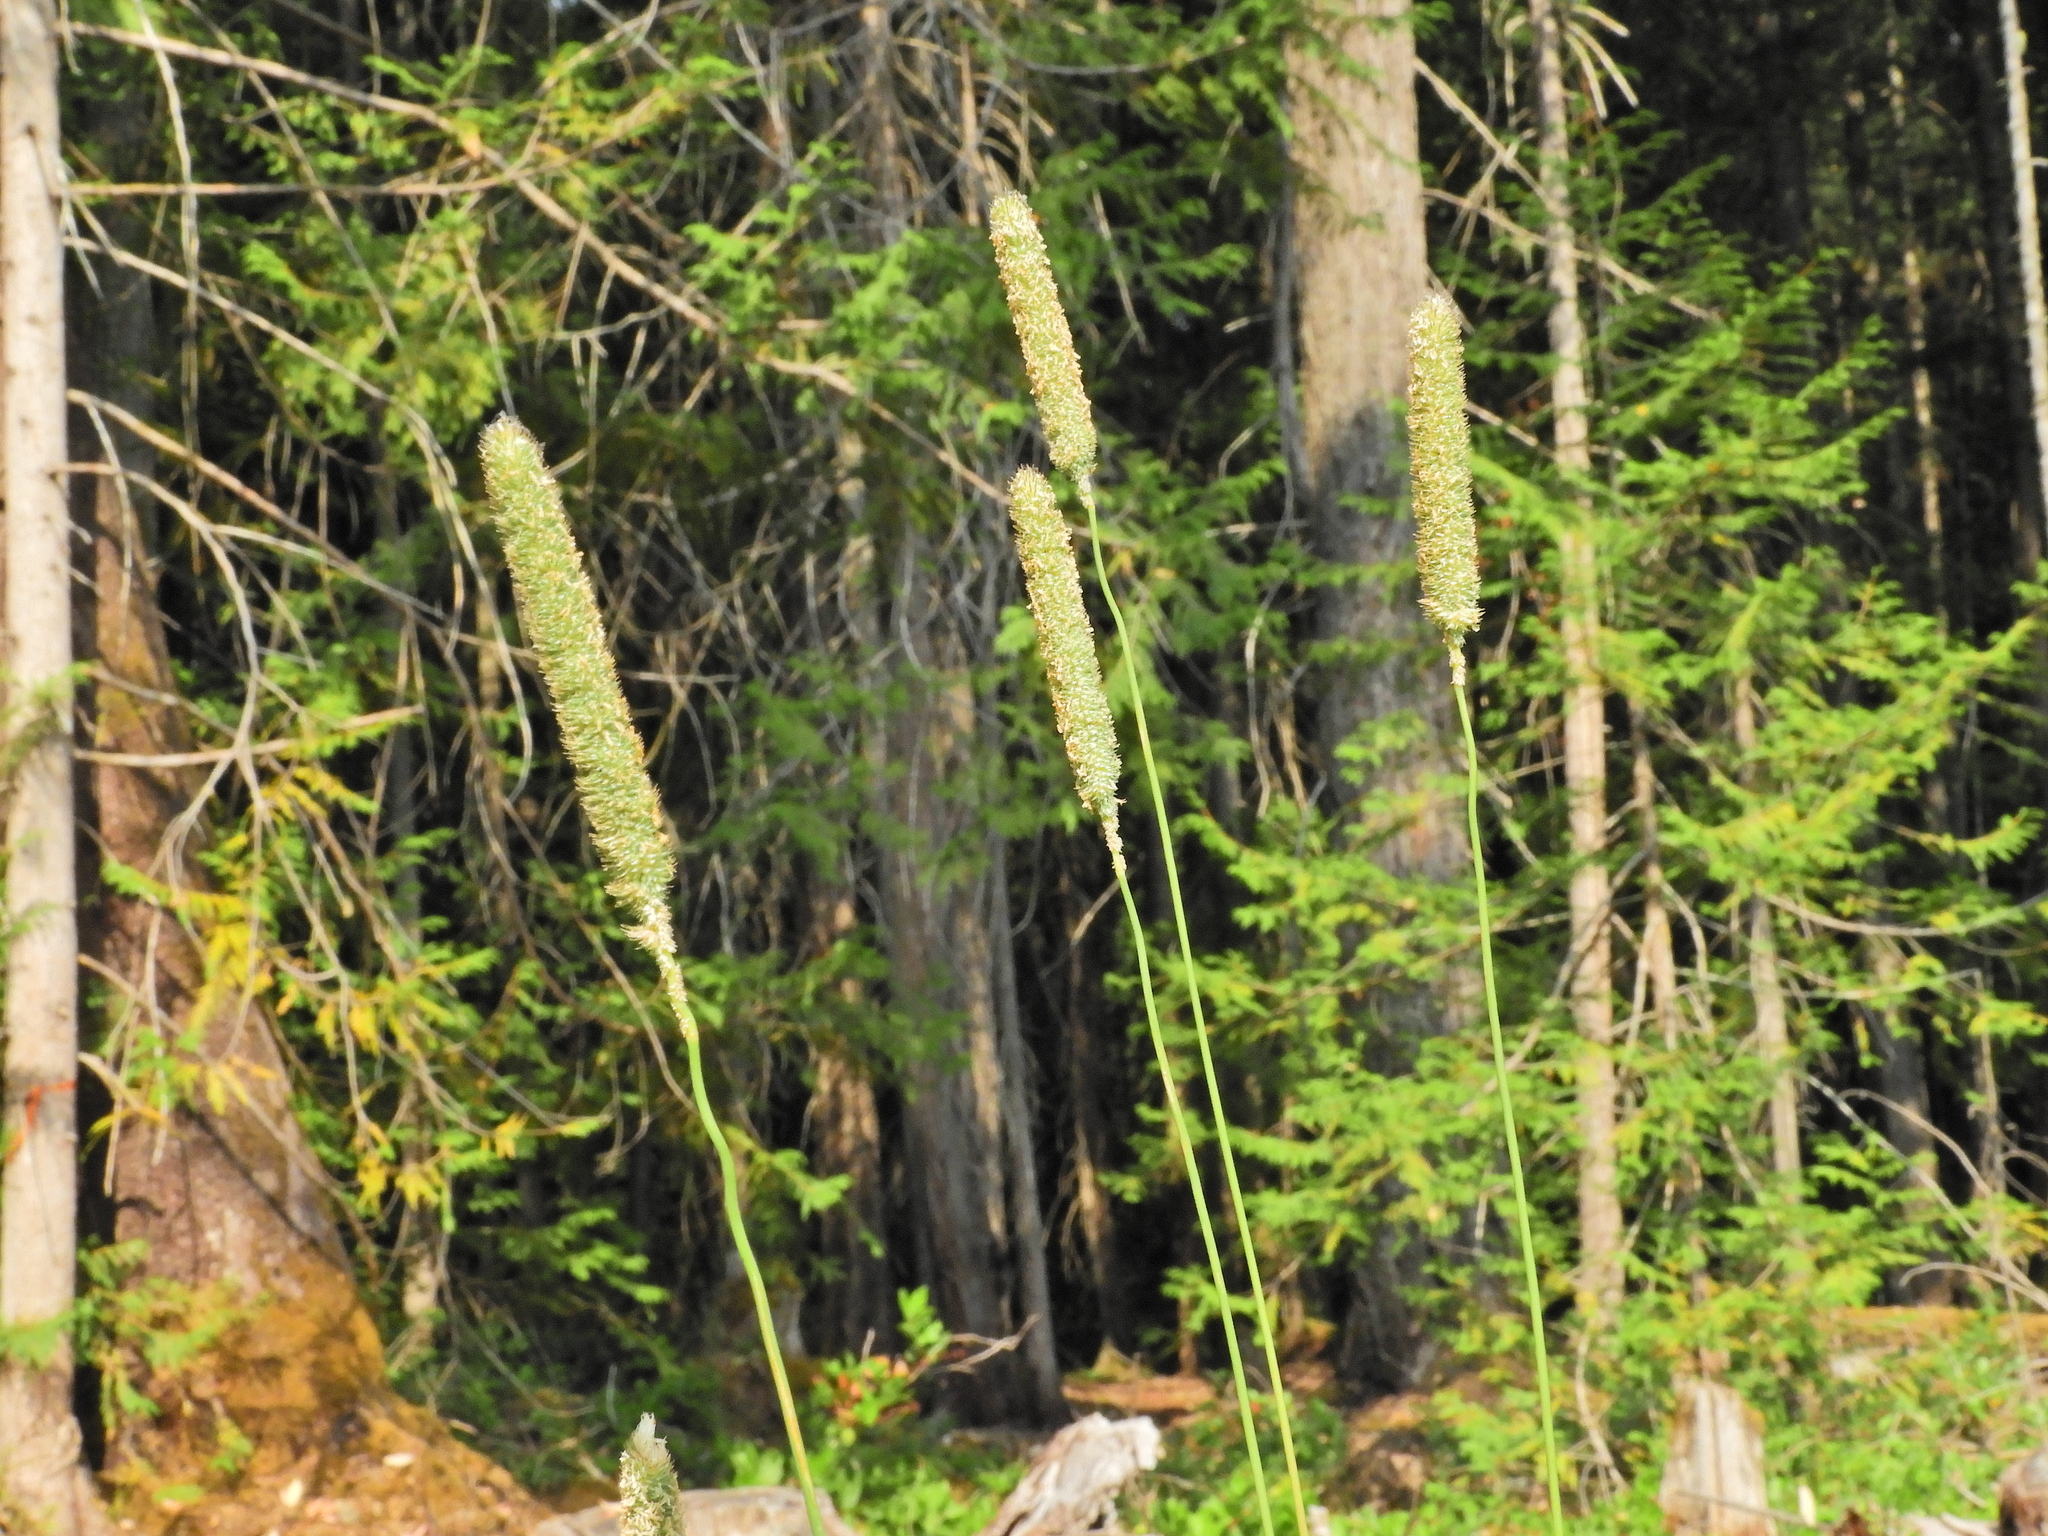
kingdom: Plantae
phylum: Tracheophyta
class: Liliopsida
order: Poales
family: Poaceae
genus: Phleum
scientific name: Phleum pratense
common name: Timothy grass
